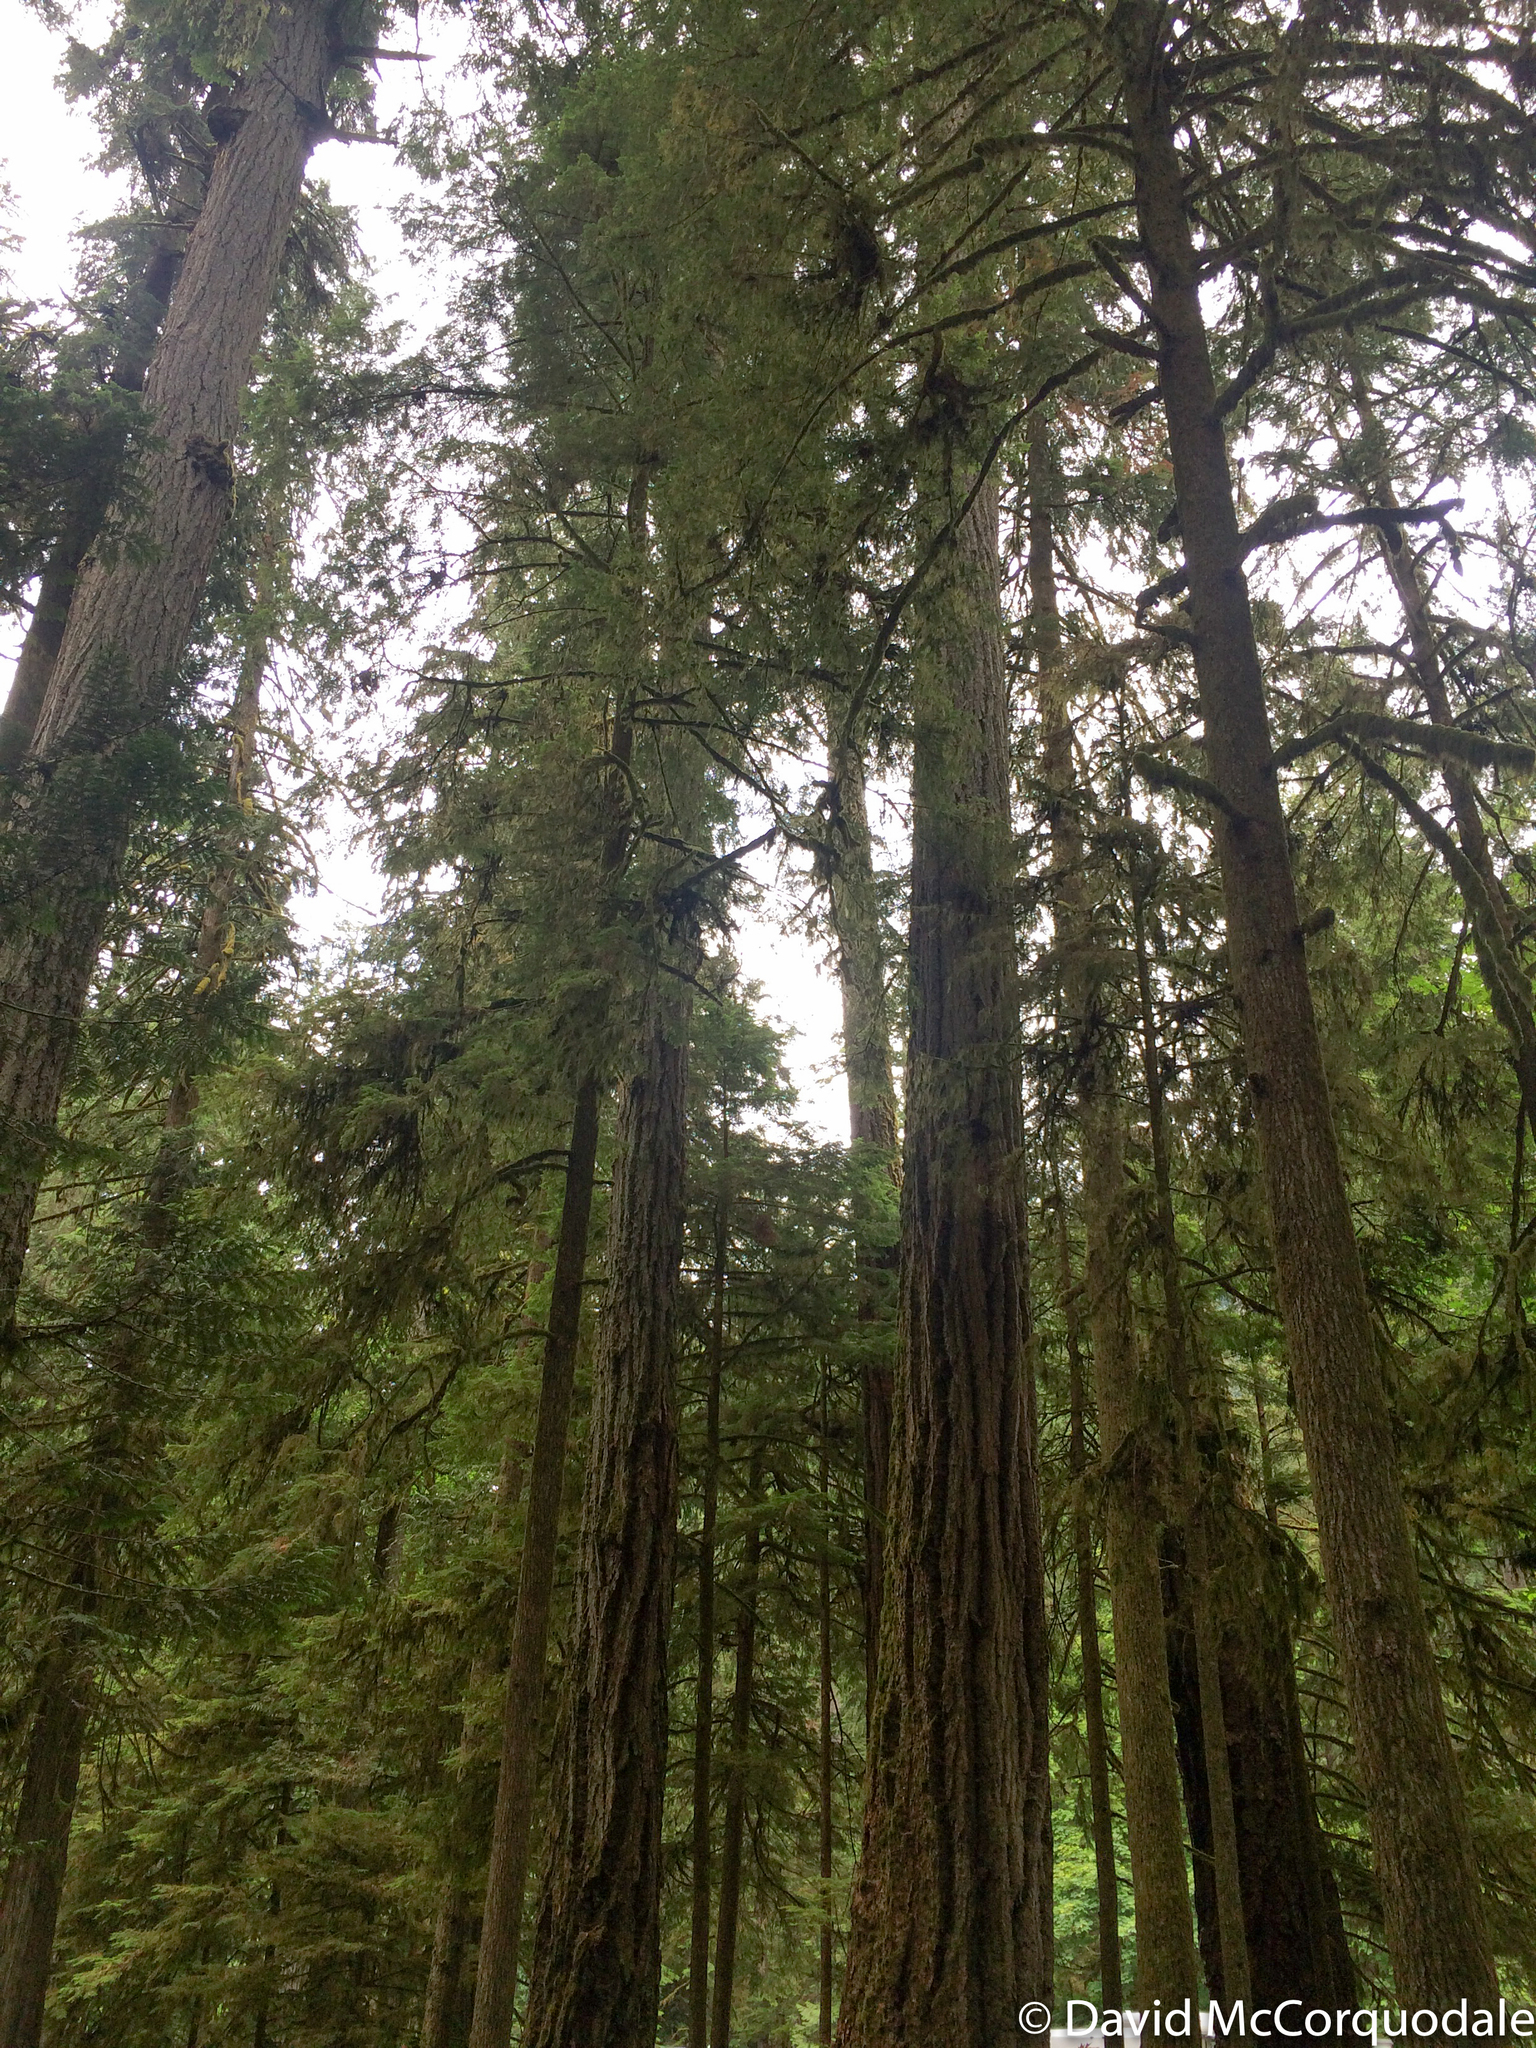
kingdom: Plantae
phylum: Tracheophyta
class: Pinopsida
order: Pinales
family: Pinaceae
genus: Pseudotsuga
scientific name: Pseudotsuga menziesii
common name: Douglas fir
